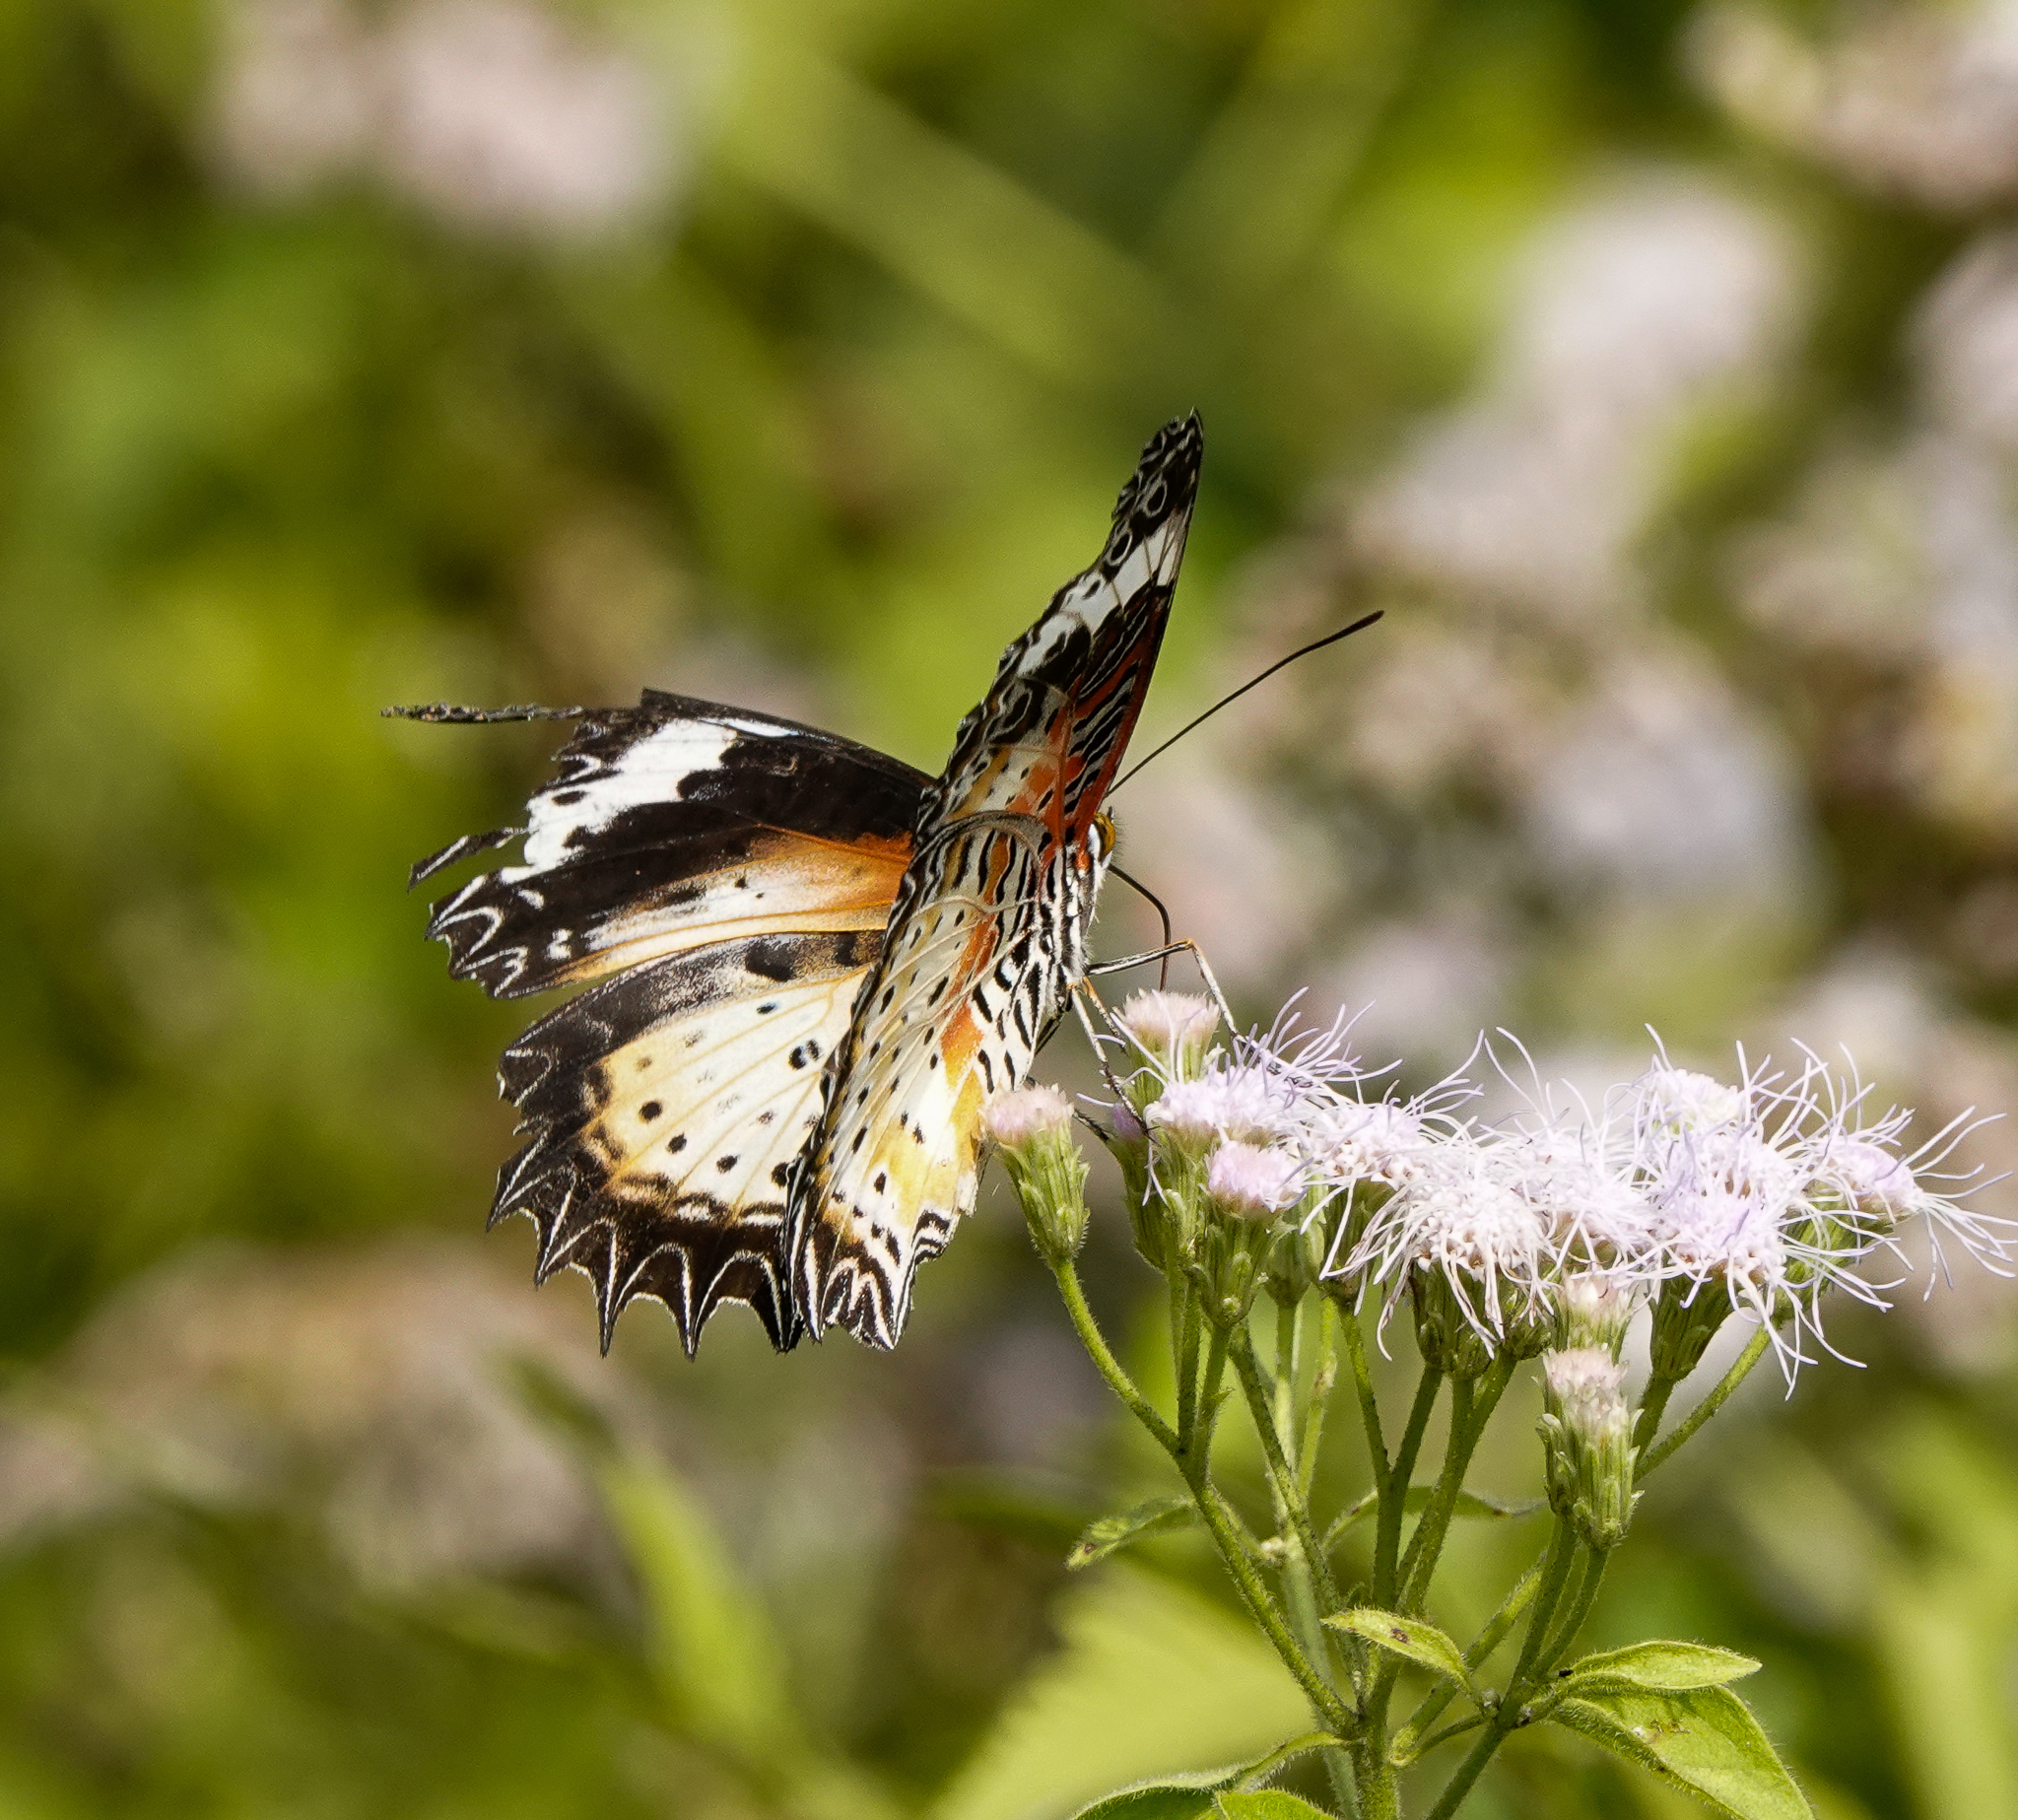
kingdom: Animalia
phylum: Arthropoda
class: Insecta
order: Lepidoptera
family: Nymphalidae
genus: Cethosia
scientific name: Cethosia cyane
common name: Leopard lacewing butterfly
